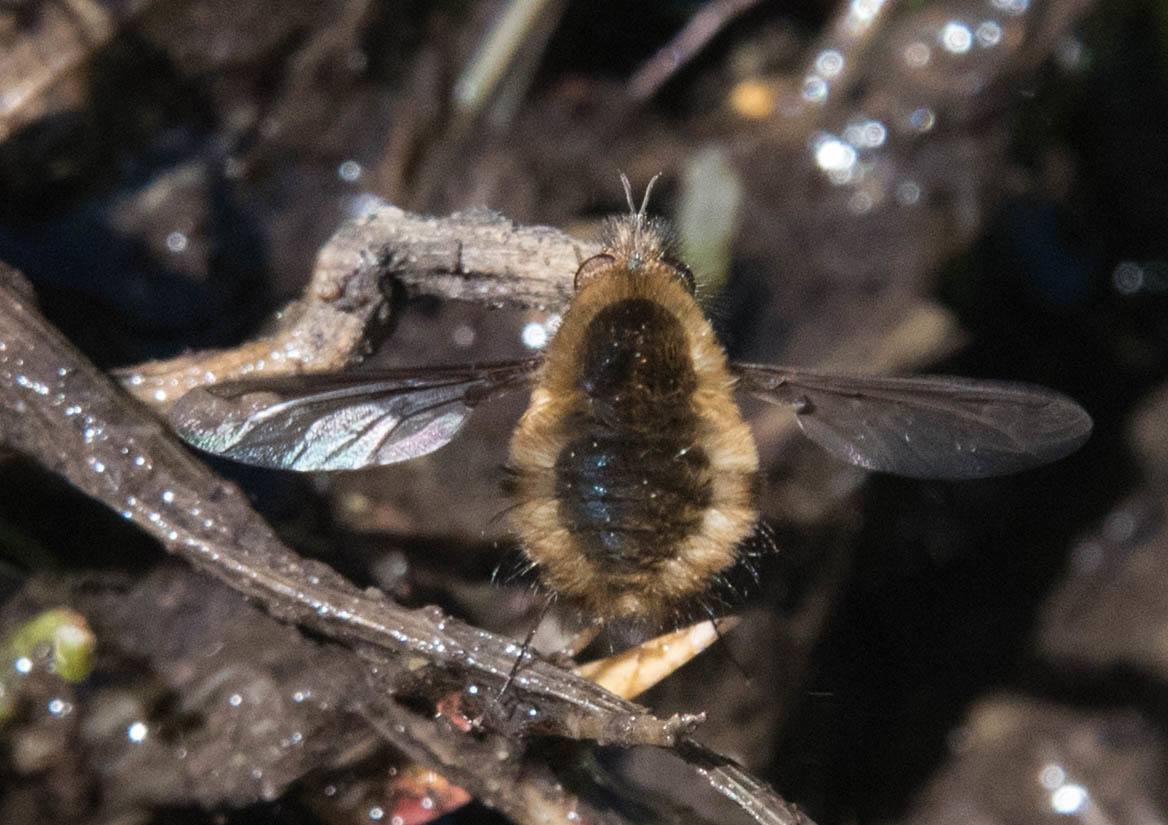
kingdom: Animalia
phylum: Arthropoda
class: Insecta
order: Diptera
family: Bombyliidae
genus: Bombylius
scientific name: Bombylius major
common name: Bee fly
